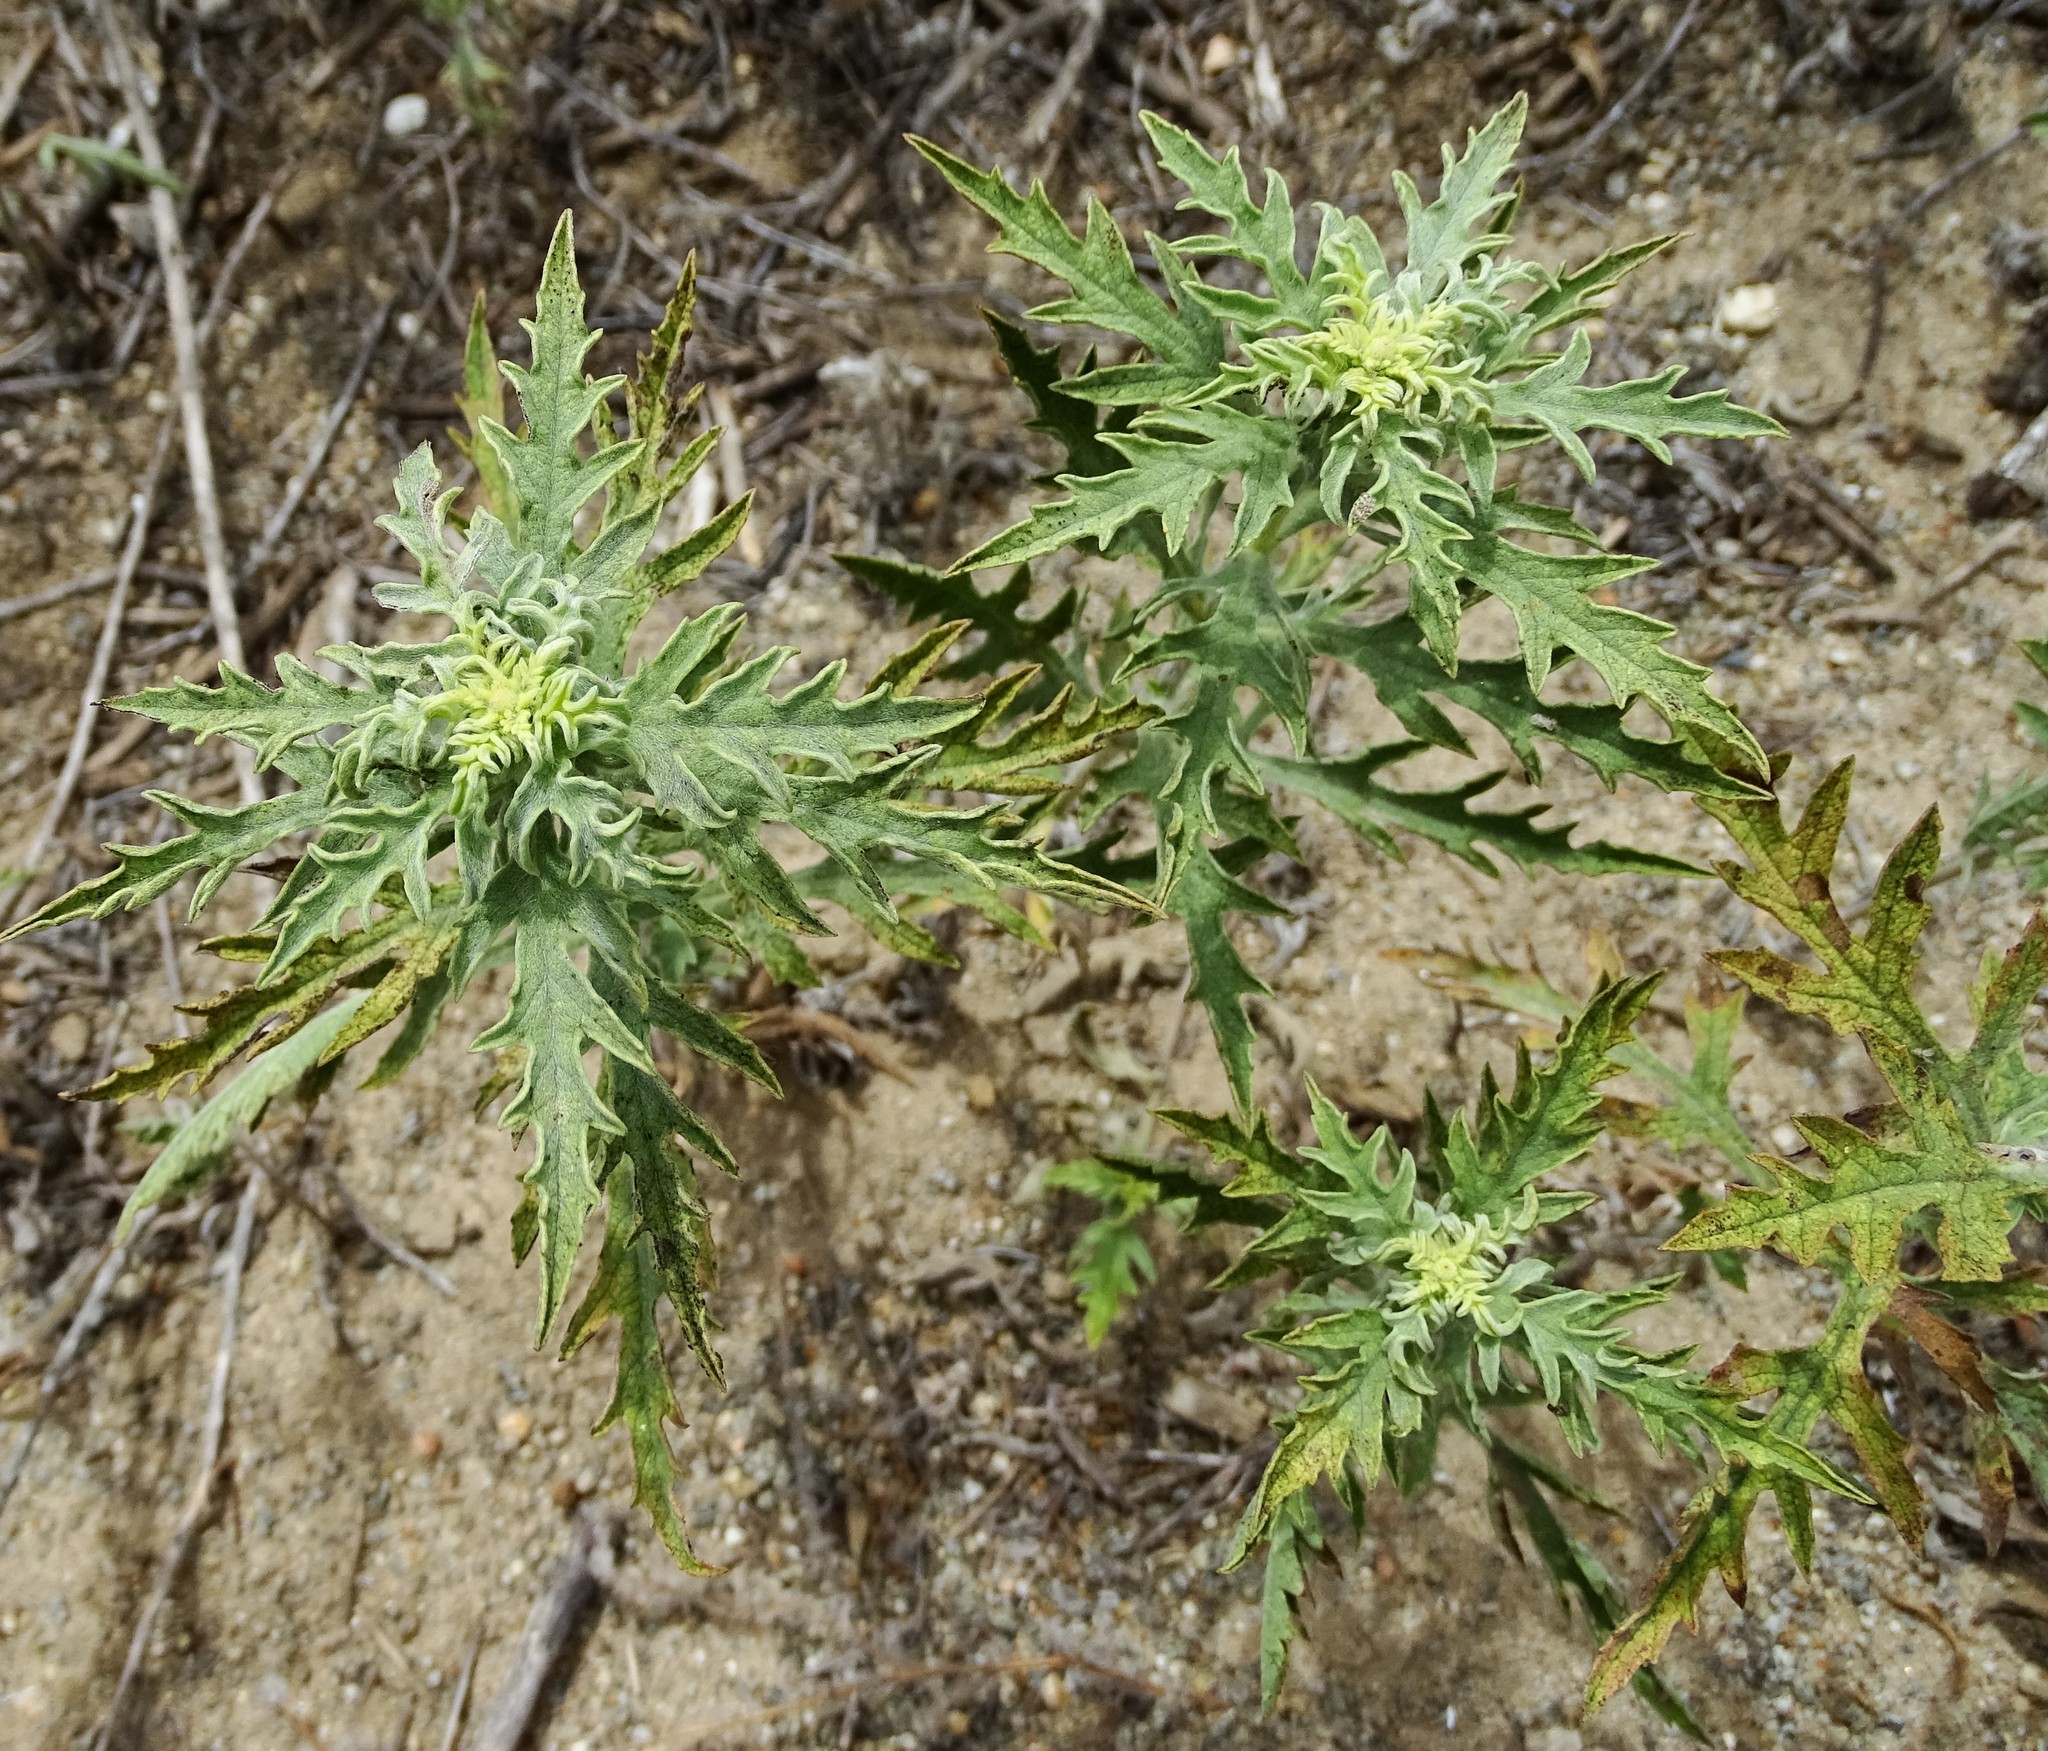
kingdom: Plantae
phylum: Tracheophyta
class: Magnoliopsida
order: Asterales
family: Asteraceae
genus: Ambrosia
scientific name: Ambrosia psilostachya
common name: Perennial ragweed
